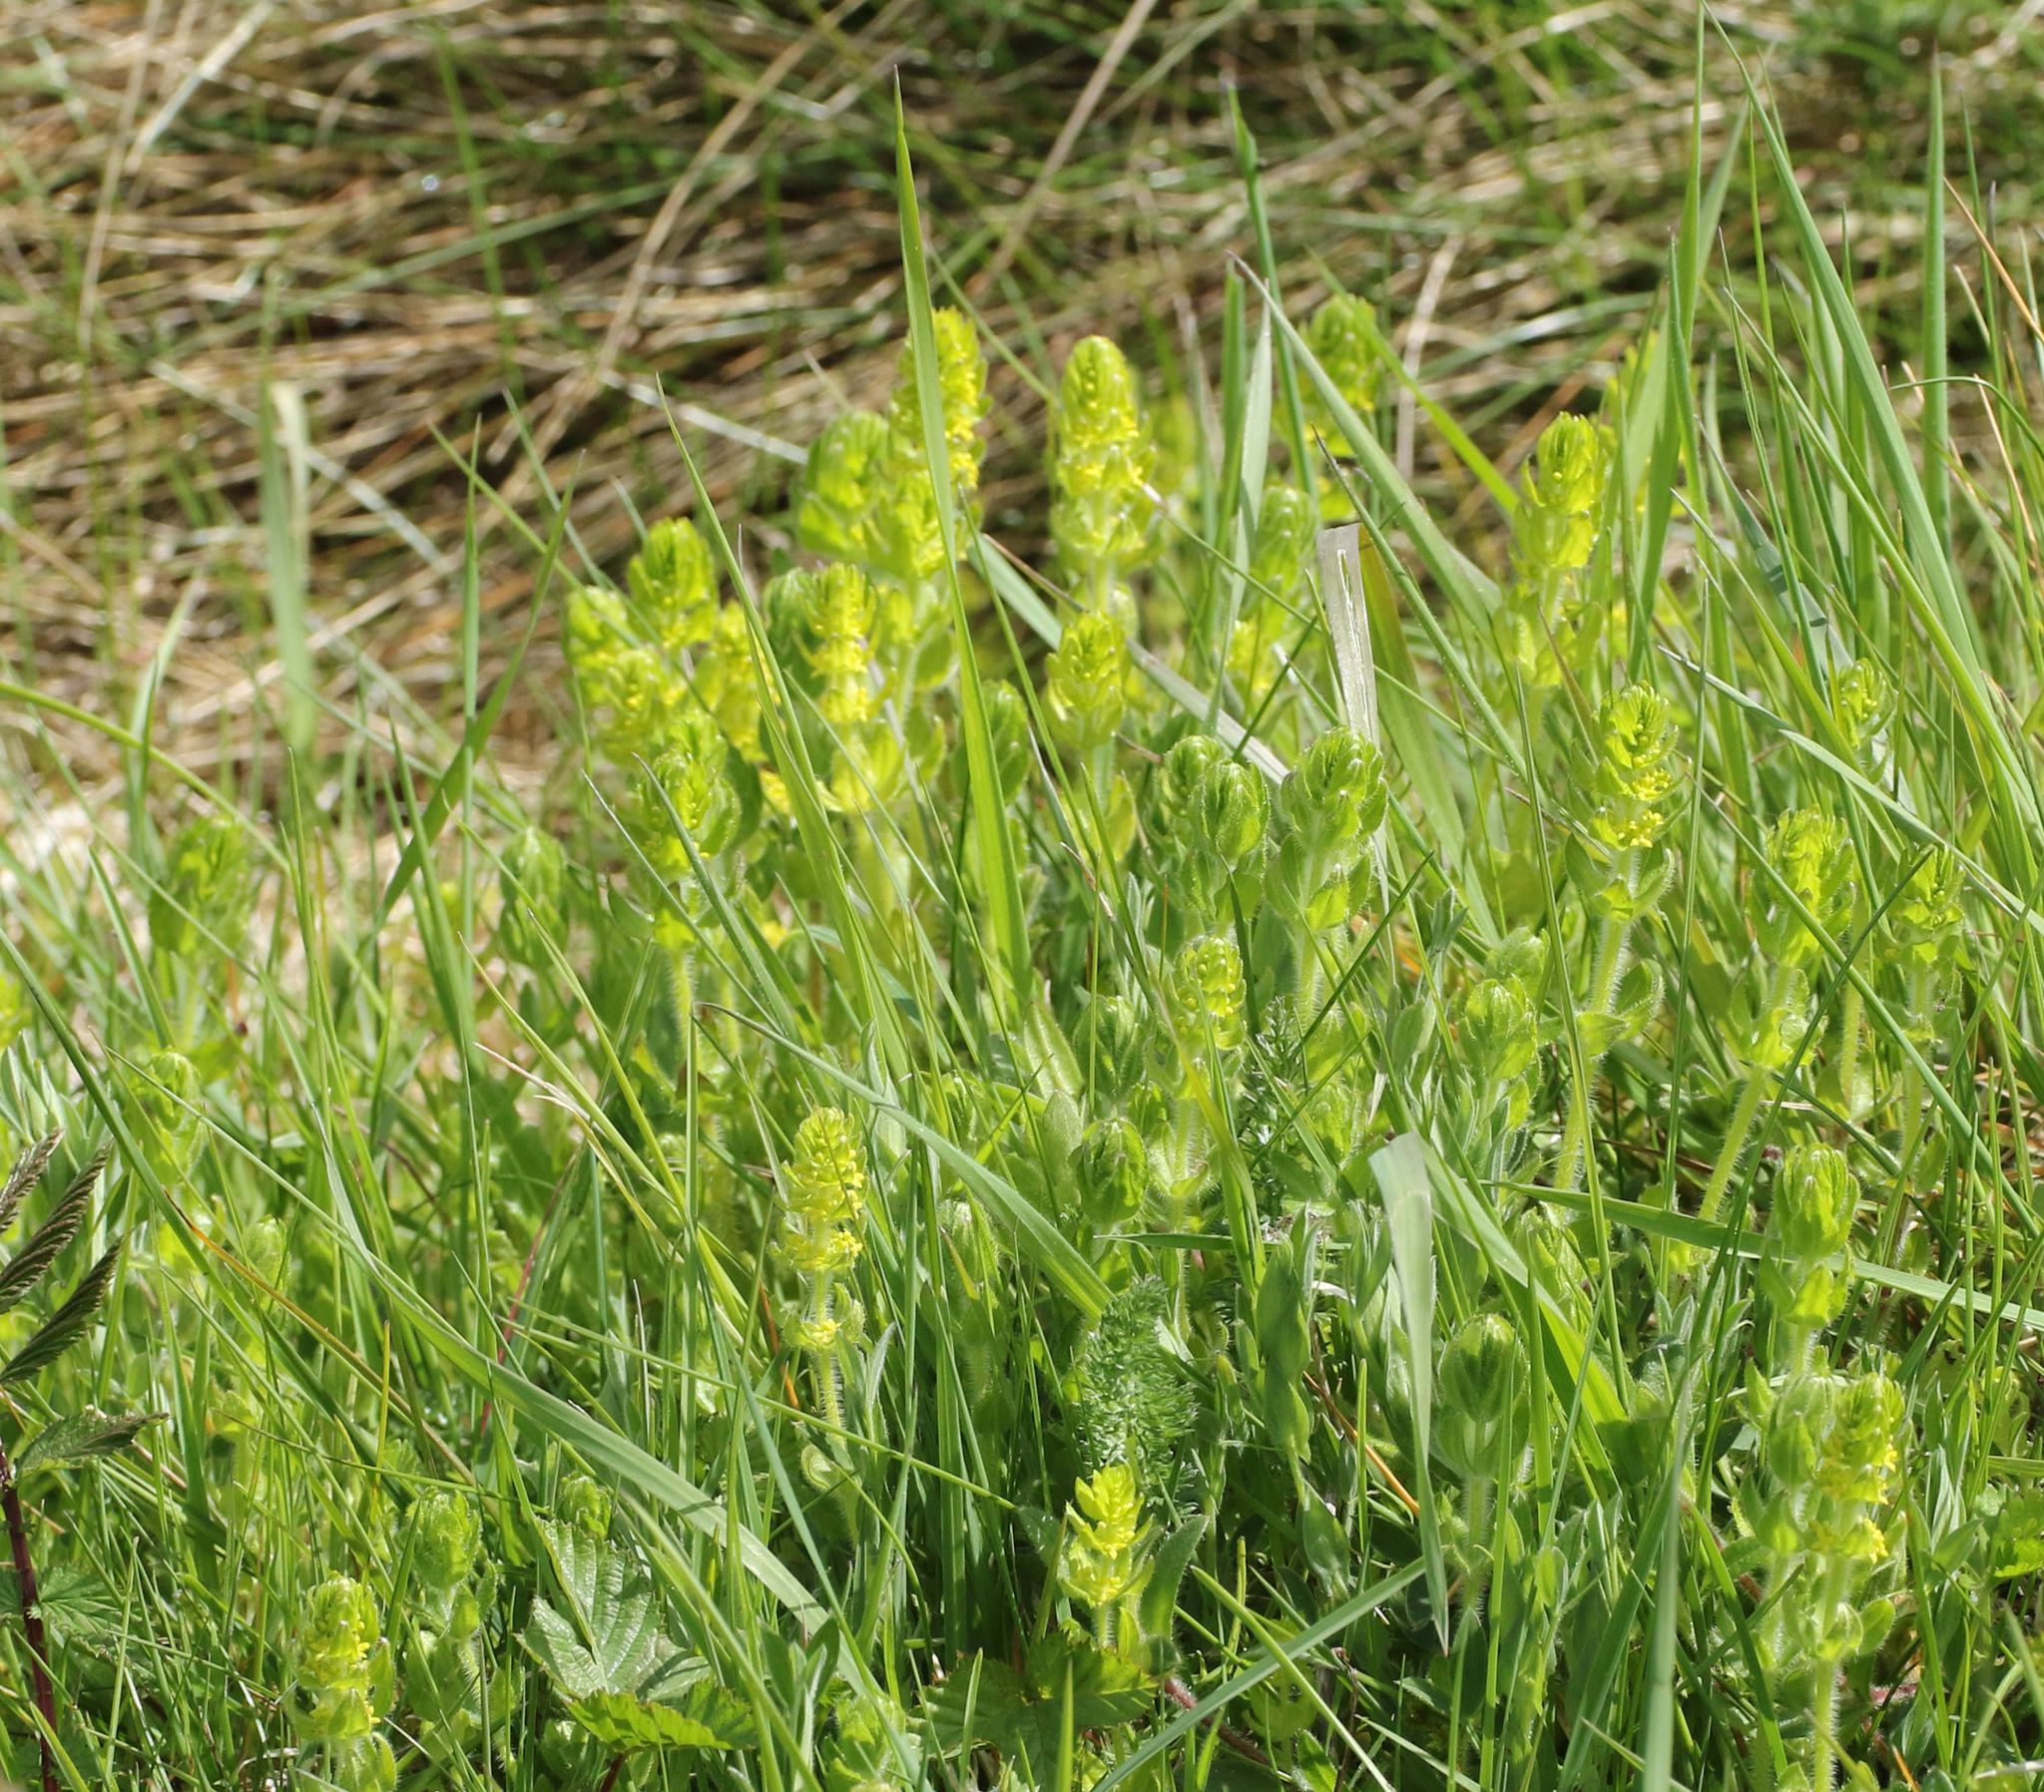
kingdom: Plantae
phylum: Tracheophyta
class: Magnoliopsida
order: Gentianales
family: Rubiaceae
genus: Cruciata
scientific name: Cruciata laevipes
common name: Crosswort
